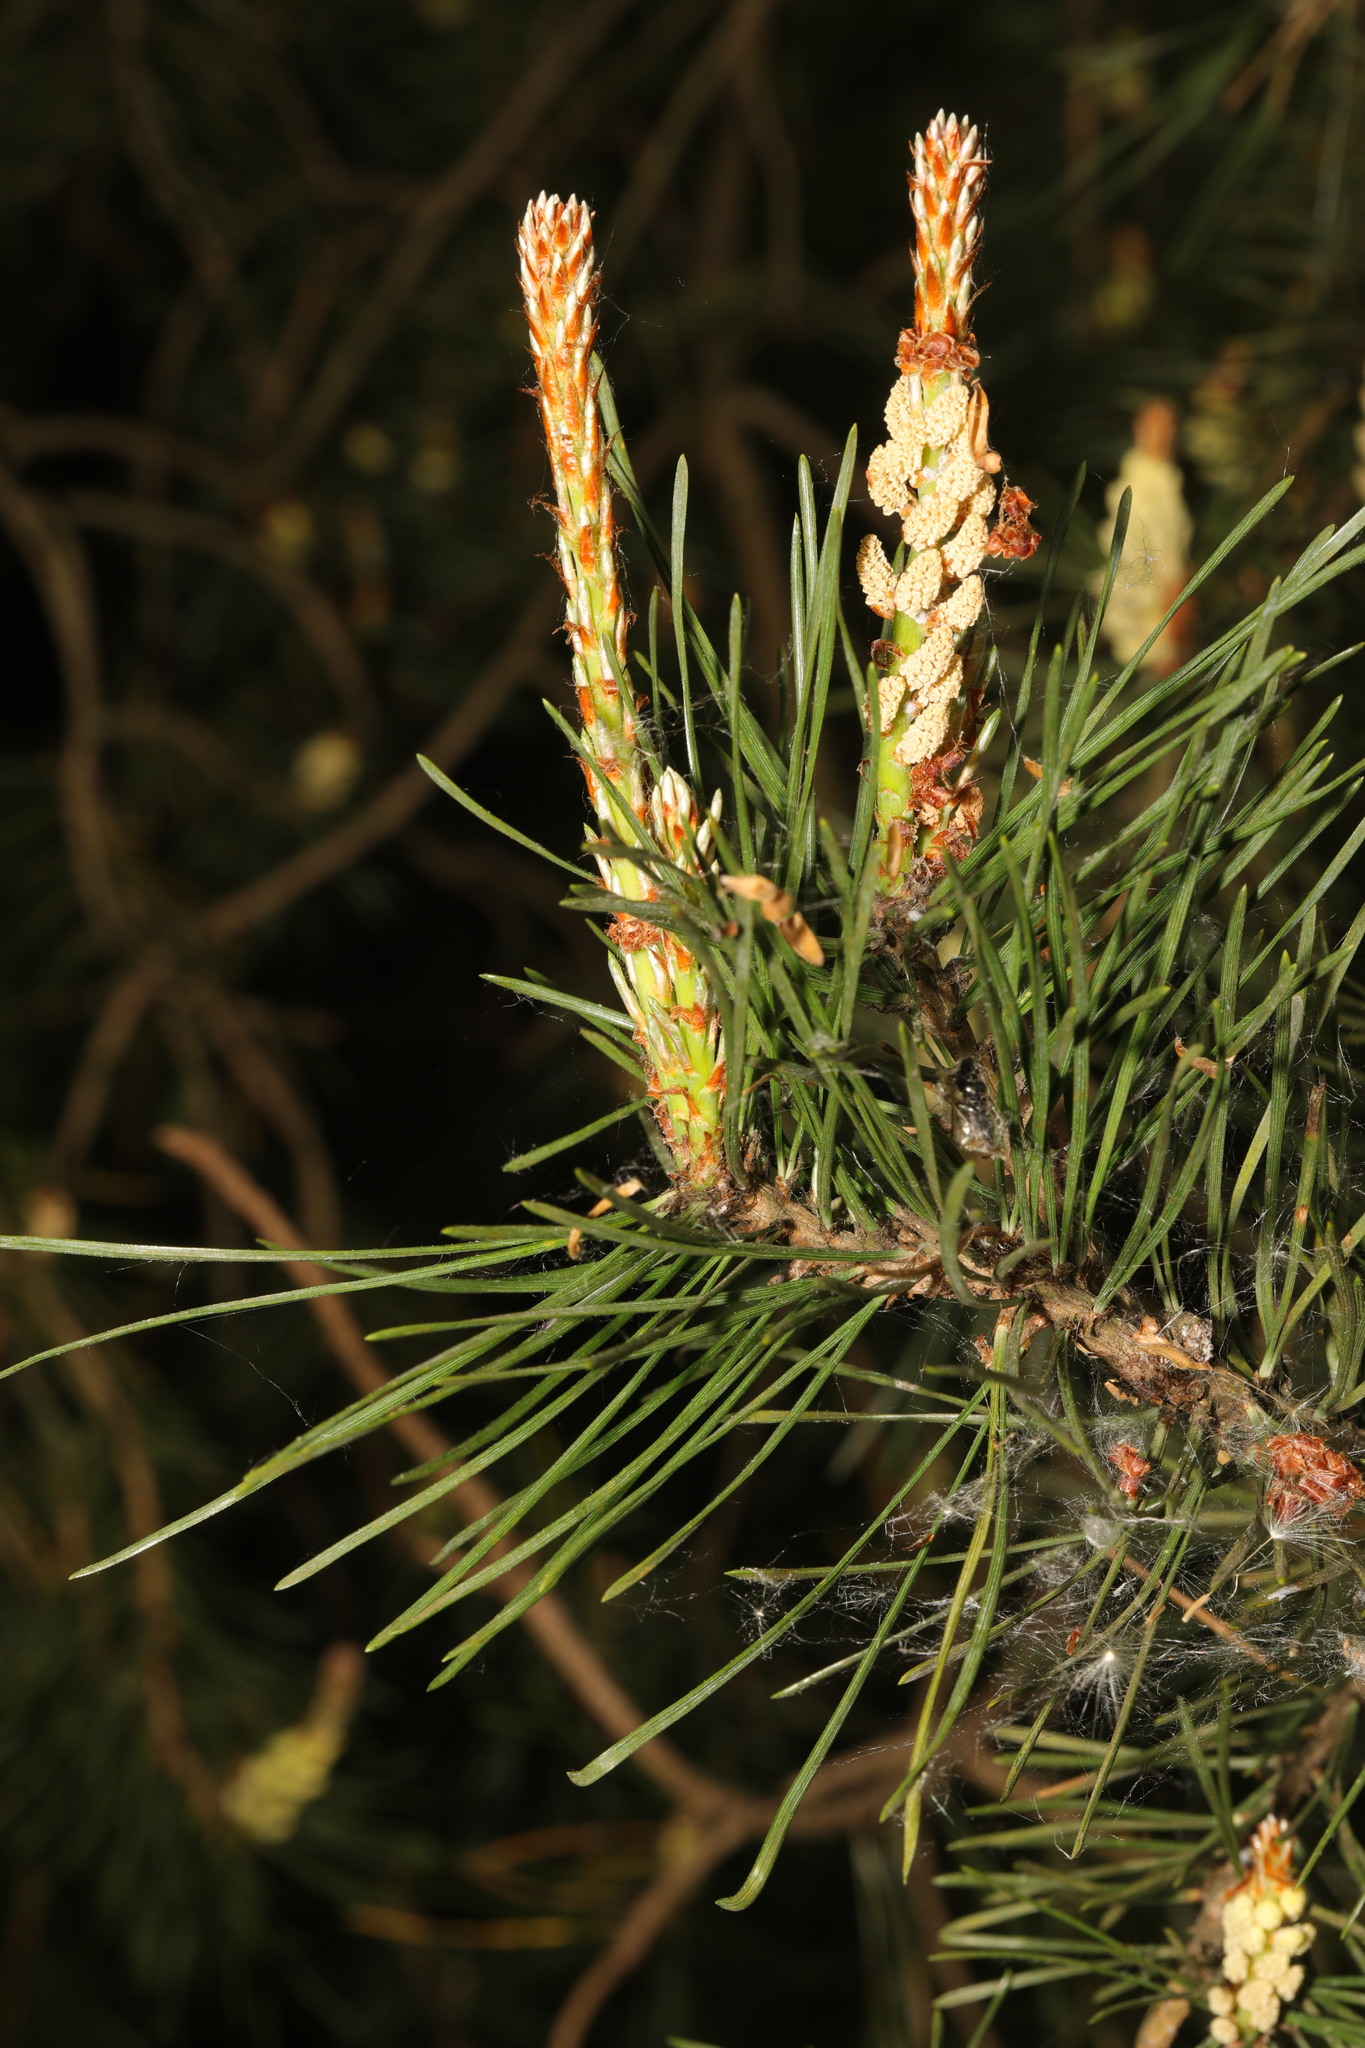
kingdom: Plantae
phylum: Tracheophyta
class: Pinopsida
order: Pinales
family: Pinaceae
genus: Pinus
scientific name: Pinus sylvestris
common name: Scots pine
